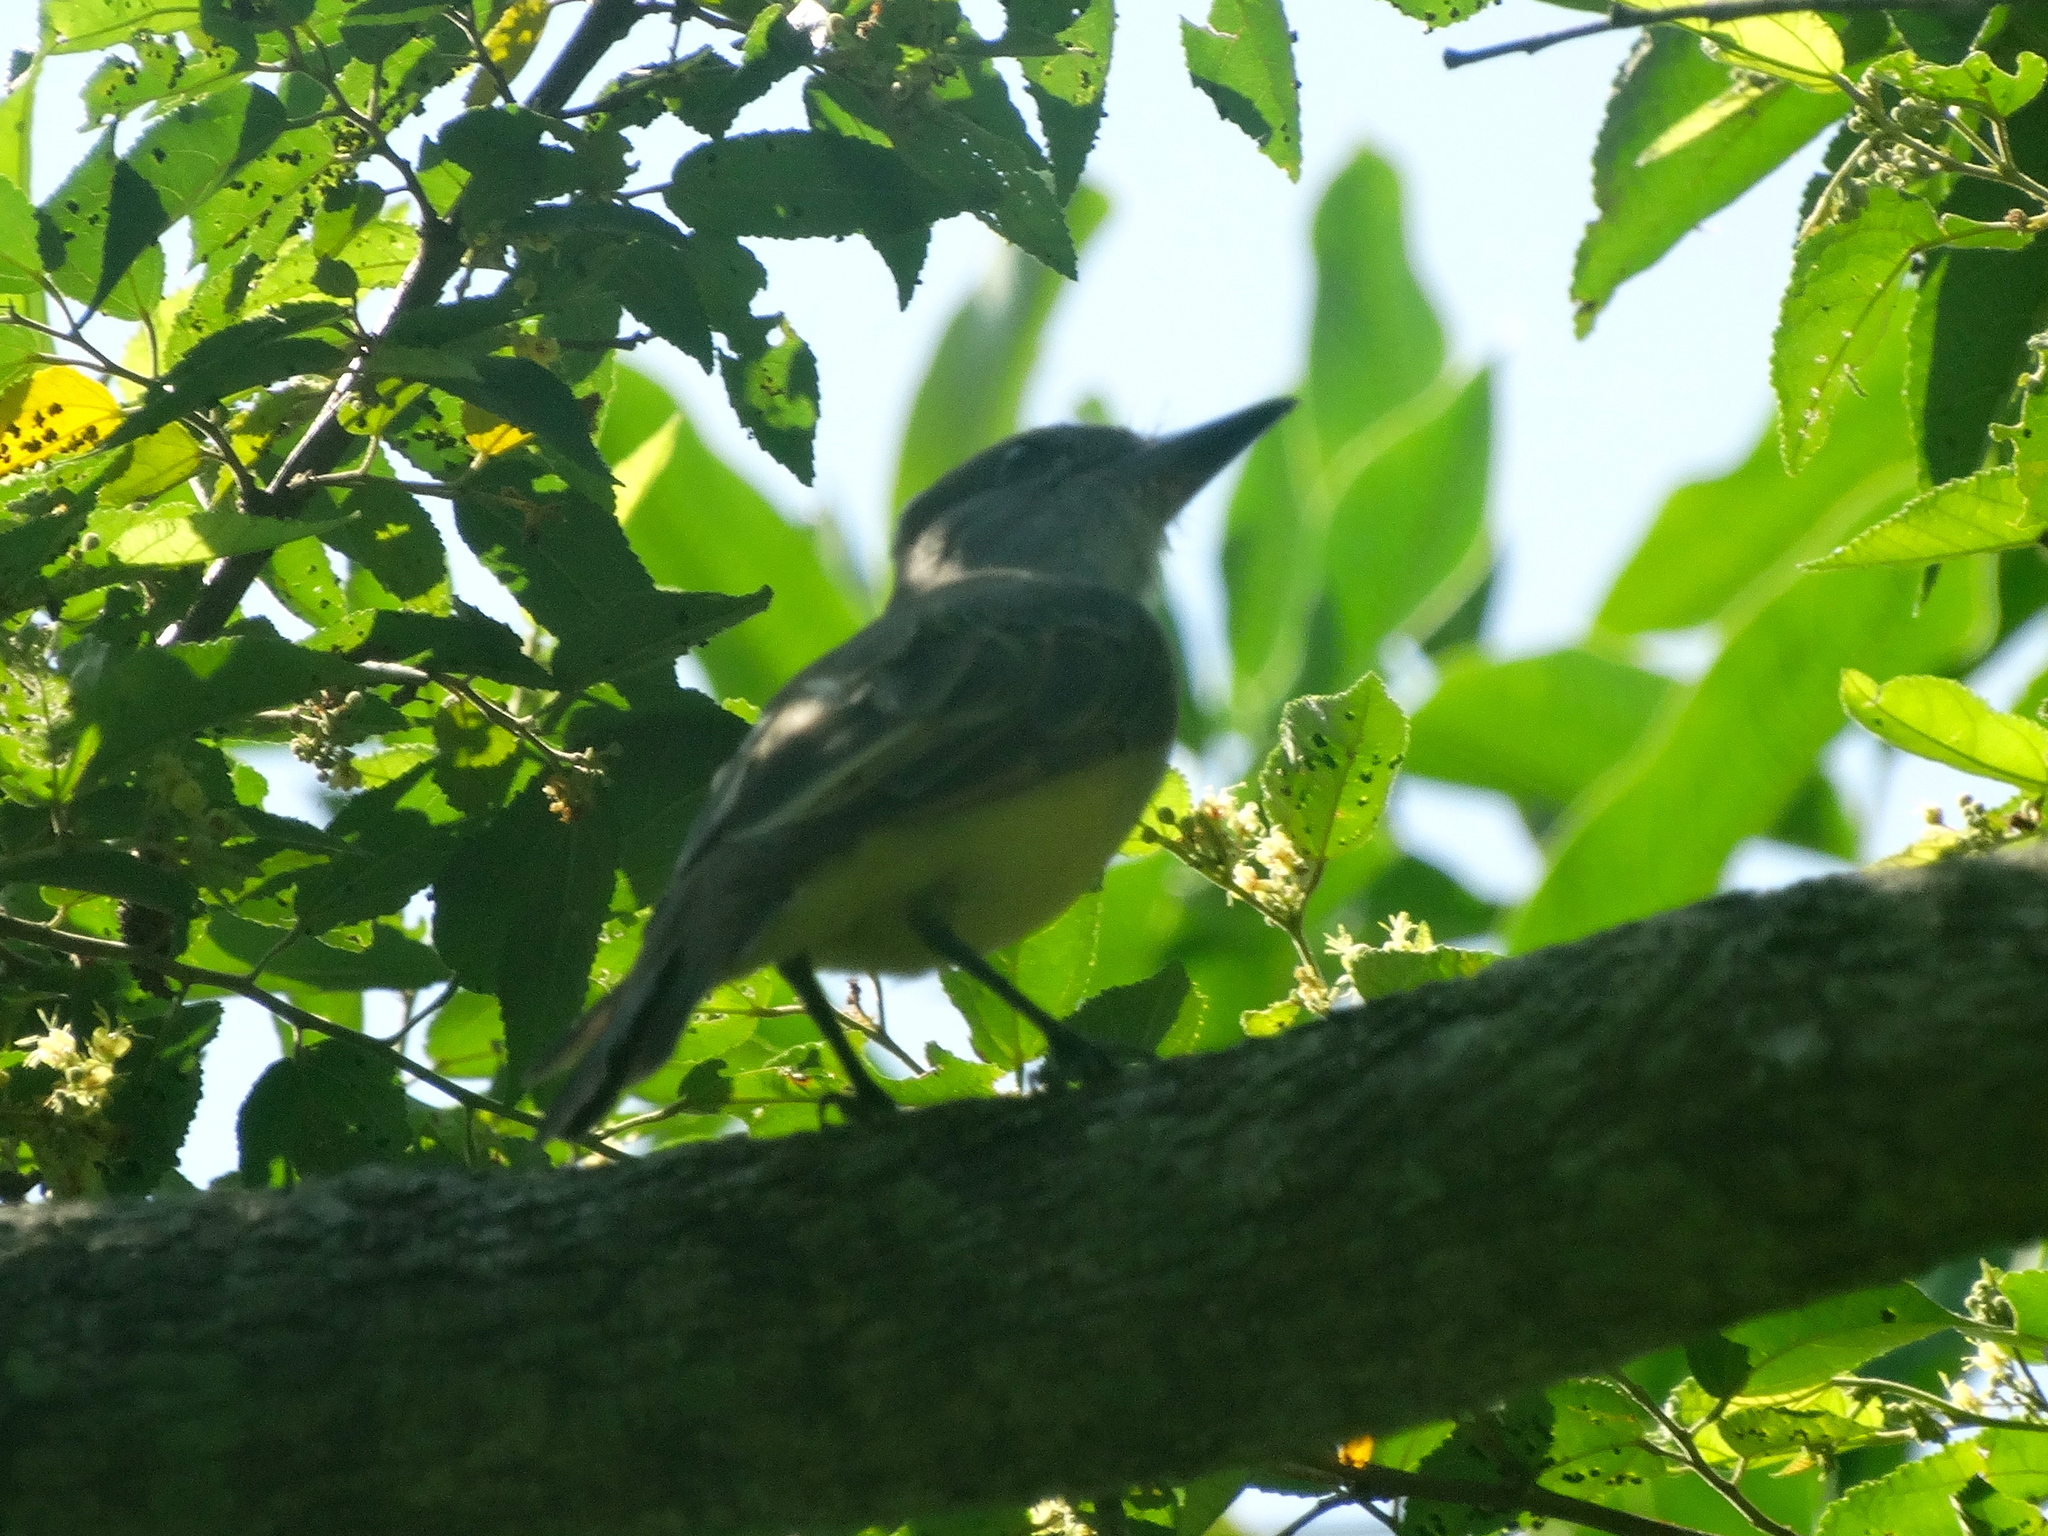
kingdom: Animalia
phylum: Chordata
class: Aves
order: Passeriformes
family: Tyrannidae
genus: Myiarchus
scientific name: Myiarchus
